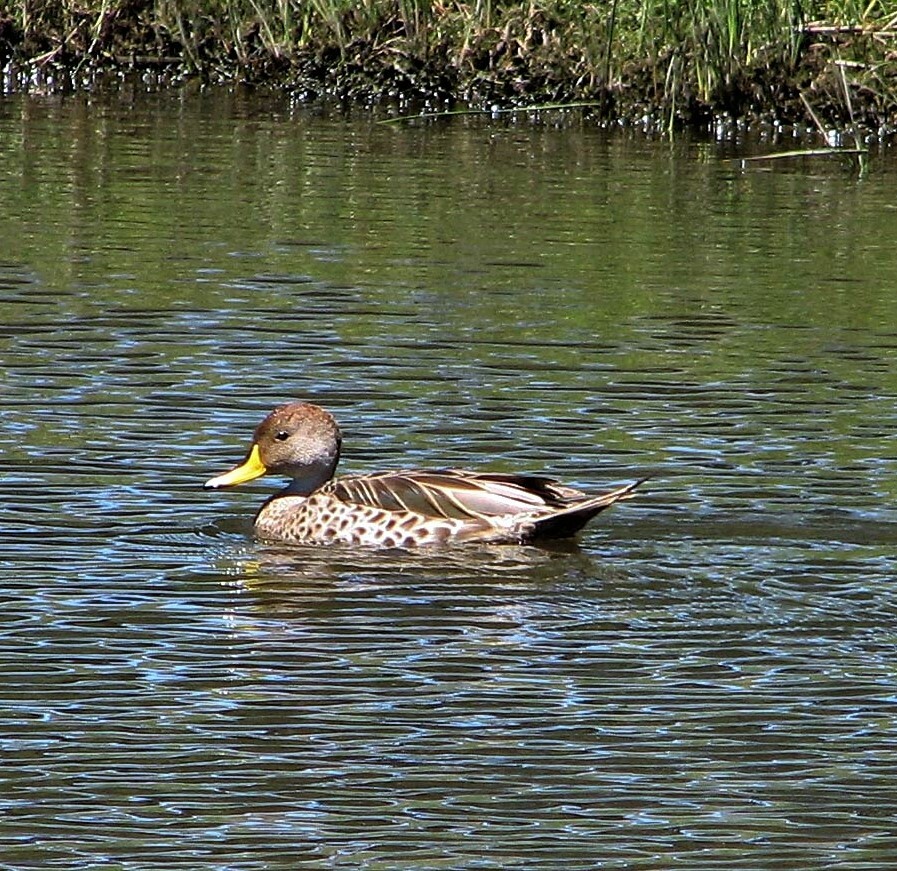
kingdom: Animalia
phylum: Chordata
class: Aves
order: Anseriformes
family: Anatidae
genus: Anas
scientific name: Anas georgica
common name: Yellow-billed pintail
